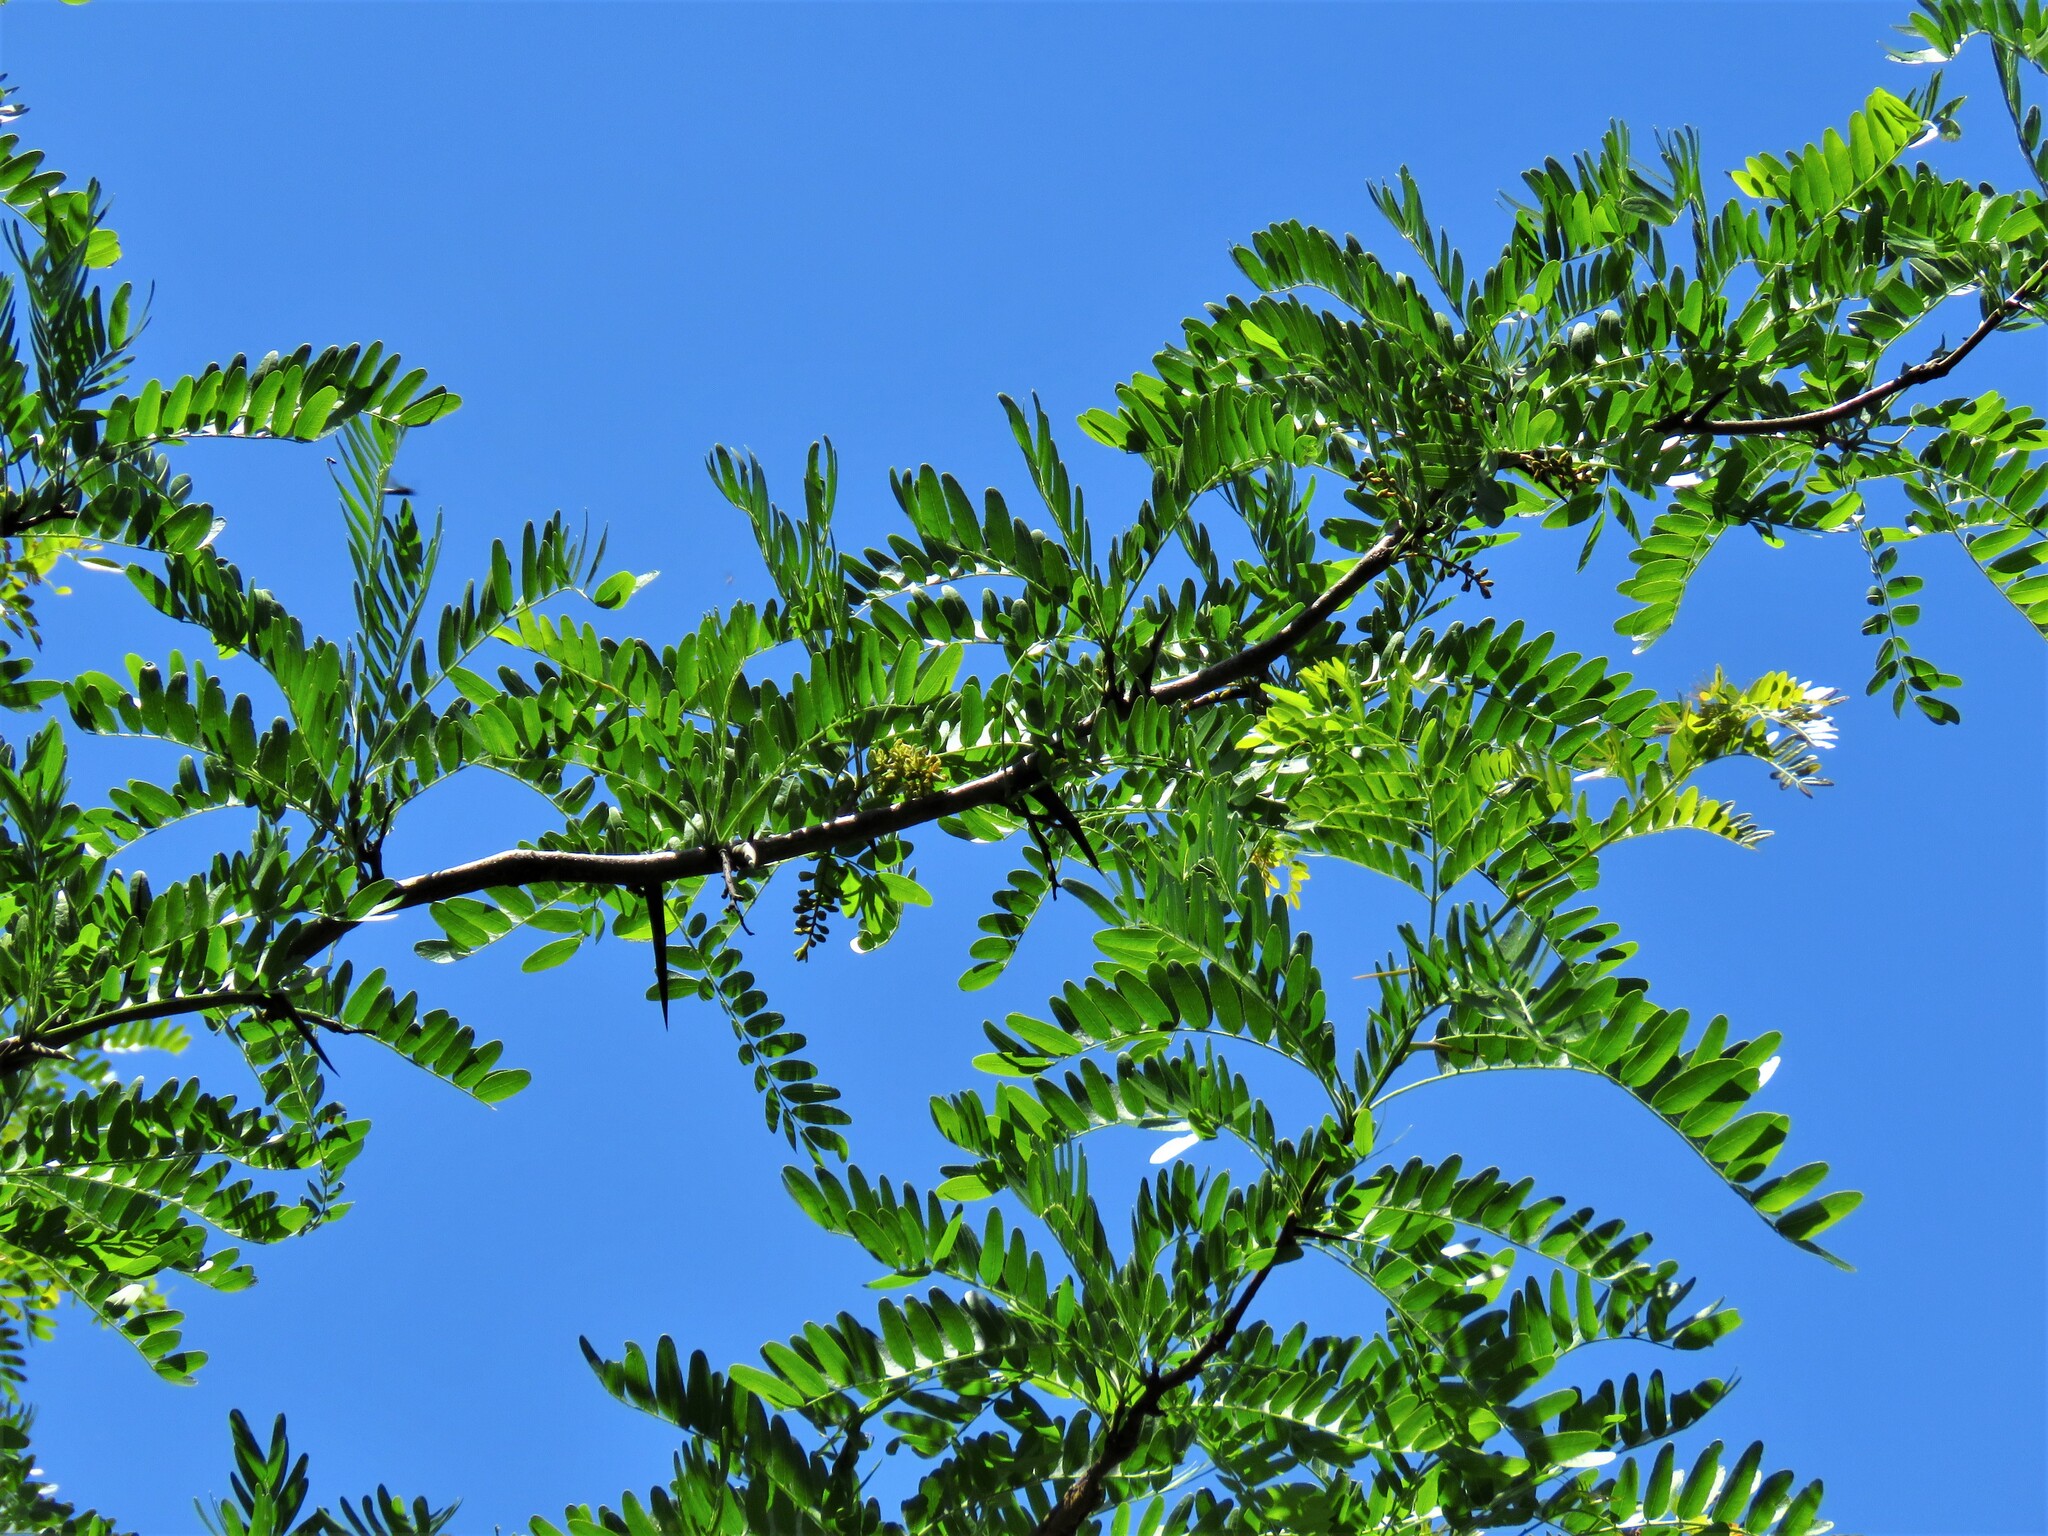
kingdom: Plantae
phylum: Tracheophyta
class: Magnoliopsida
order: Fabales
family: Fabaceae
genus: Gleditsia
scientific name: Gleditsia triacanthos
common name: Common honeylocust
